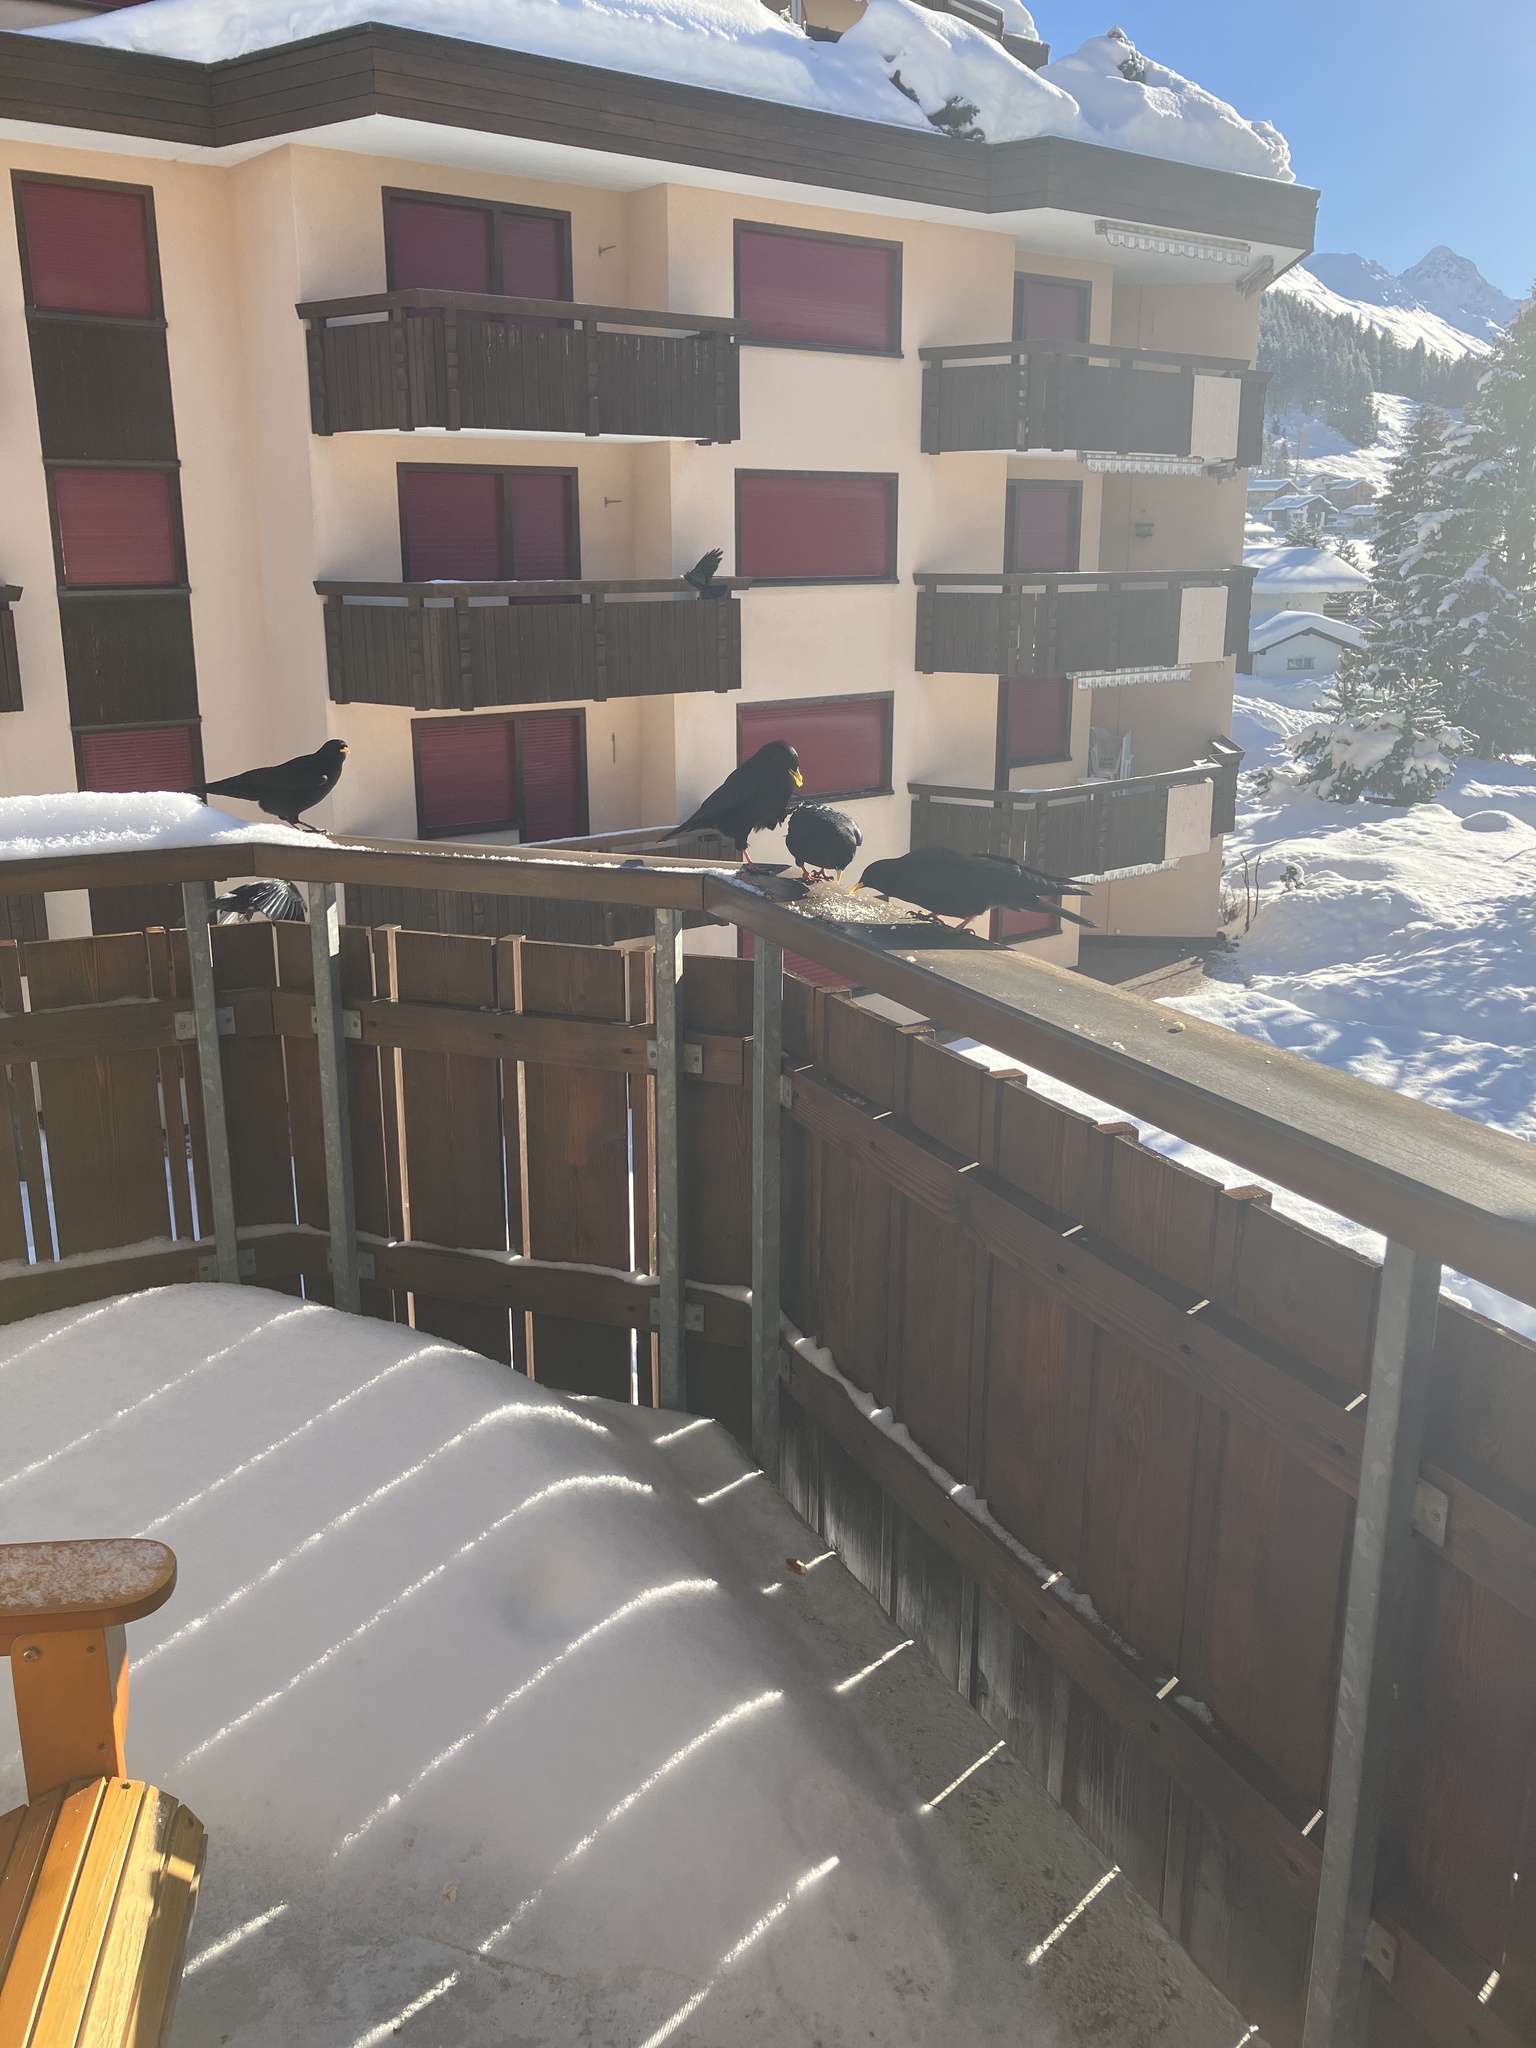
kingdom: Animalia
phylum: Chordata
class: Aves
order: Passeriformes
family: Corvidae
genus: Pyrrhocorax
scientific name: Pyrrhocorax graculus
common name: Alpine chough
